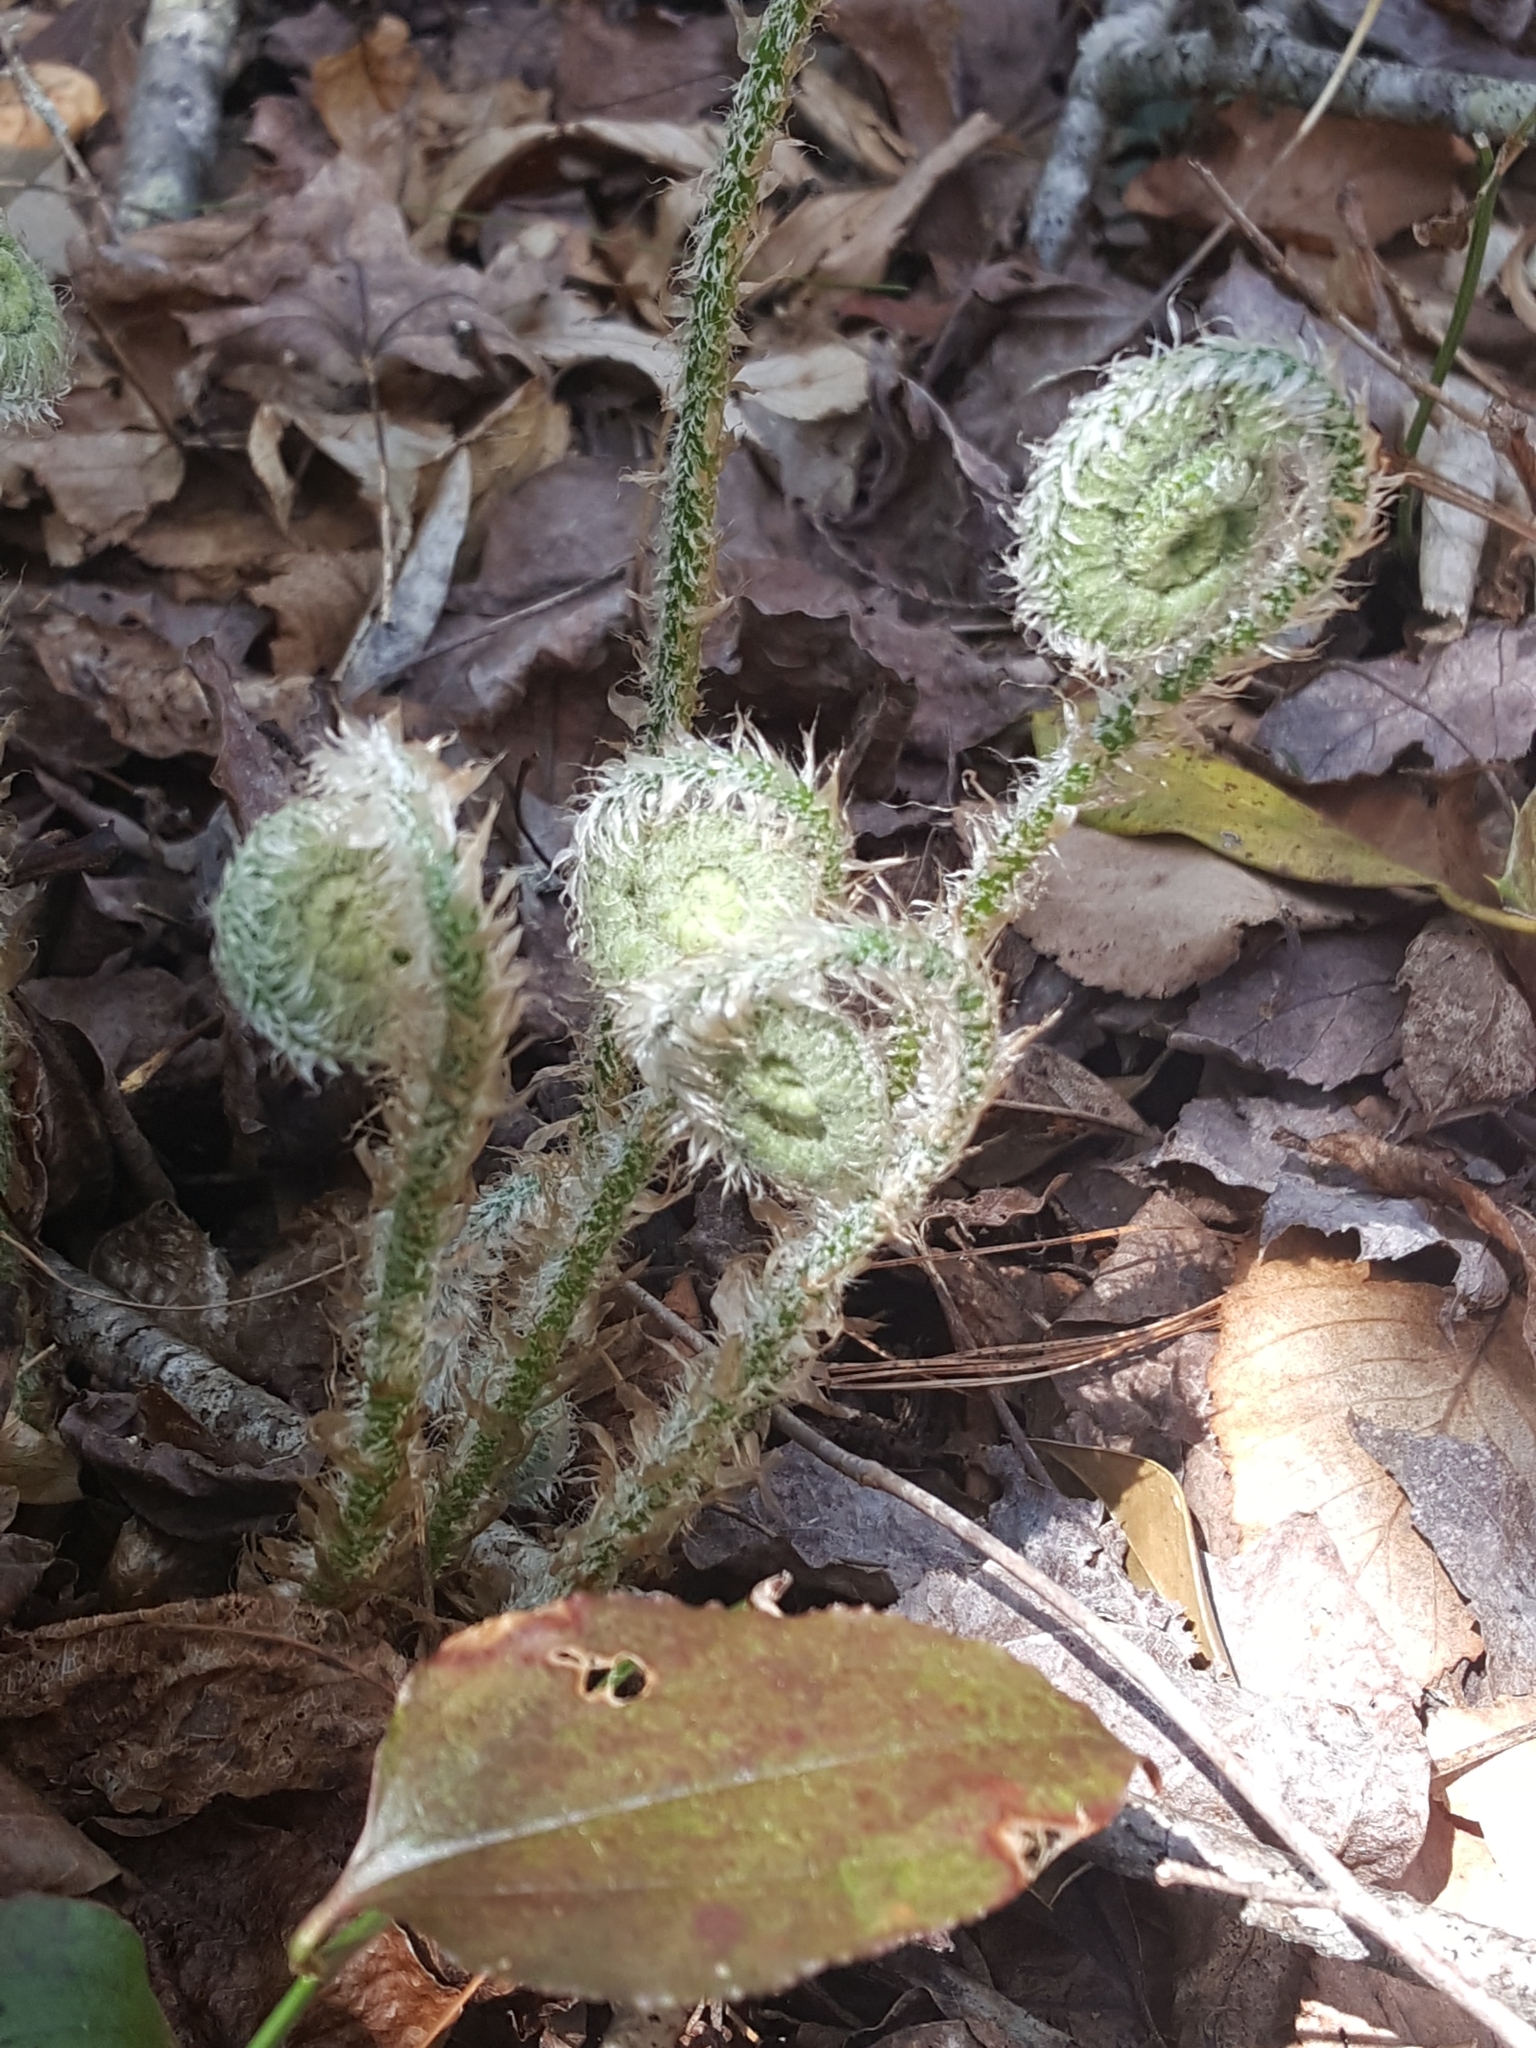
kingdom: Plantae
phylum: Tracheophyta
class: Polypodiopsida
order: Polypodiales
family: Dryopteridaceae
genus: Polystichum
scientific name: Polystichum acrostichoides
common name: Christmas fern
